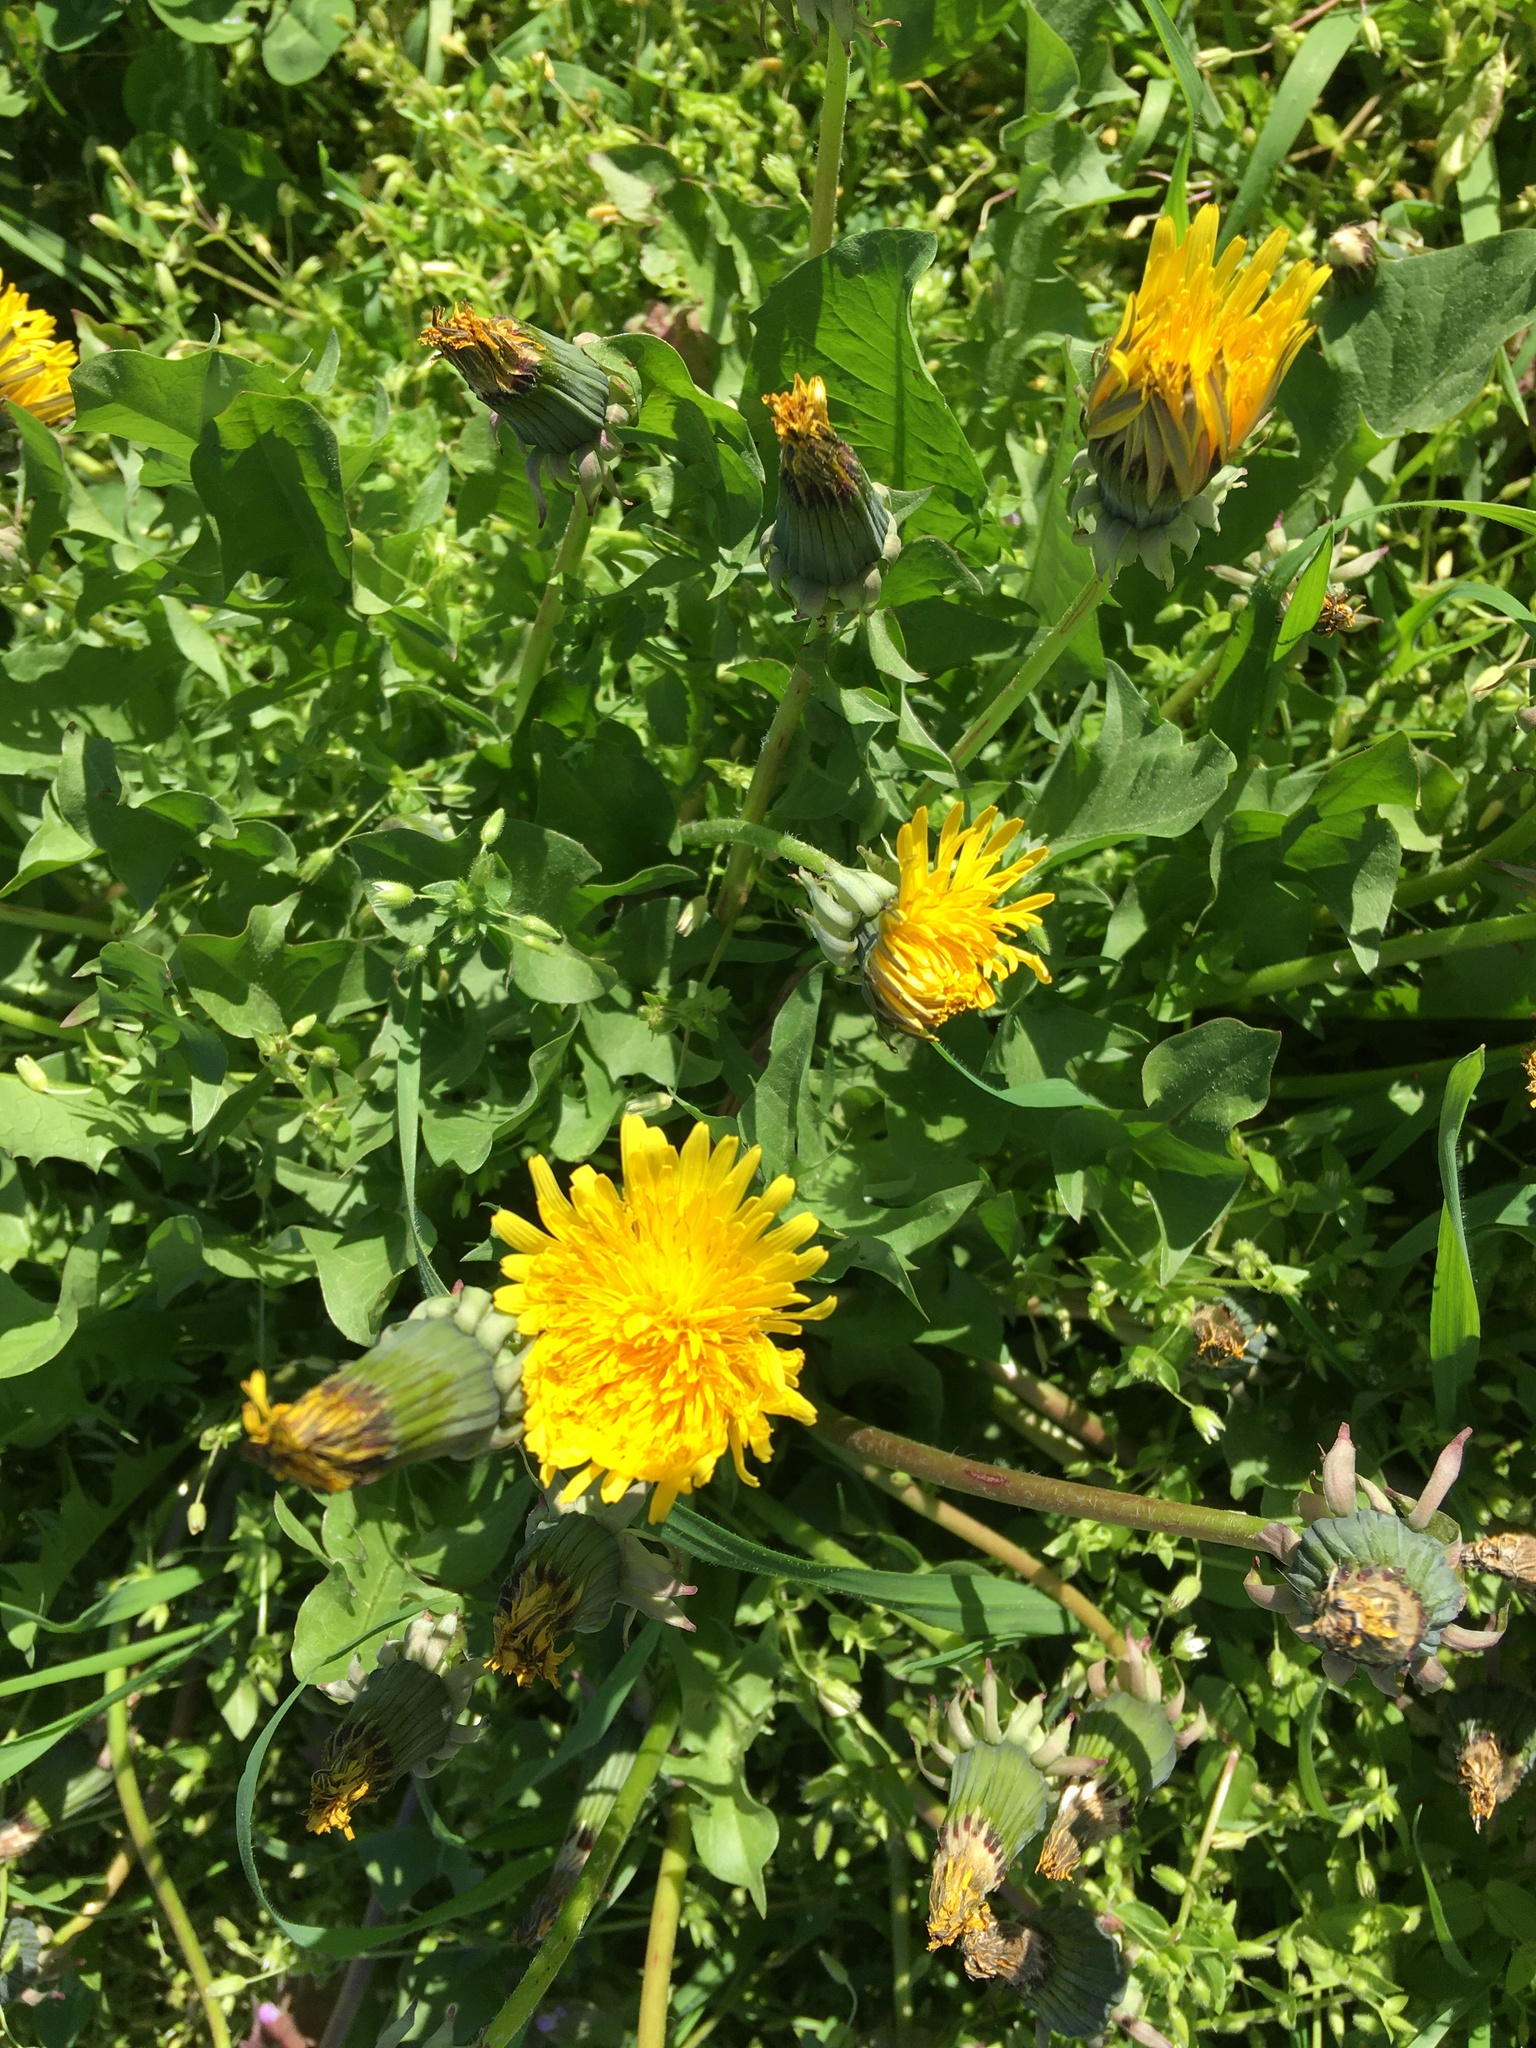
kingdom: Plantae
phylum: Tracheophyta
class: Magnoliopsida
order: Asterales
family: Asteraceae
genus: Taraxacum
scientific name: Taraxacum
